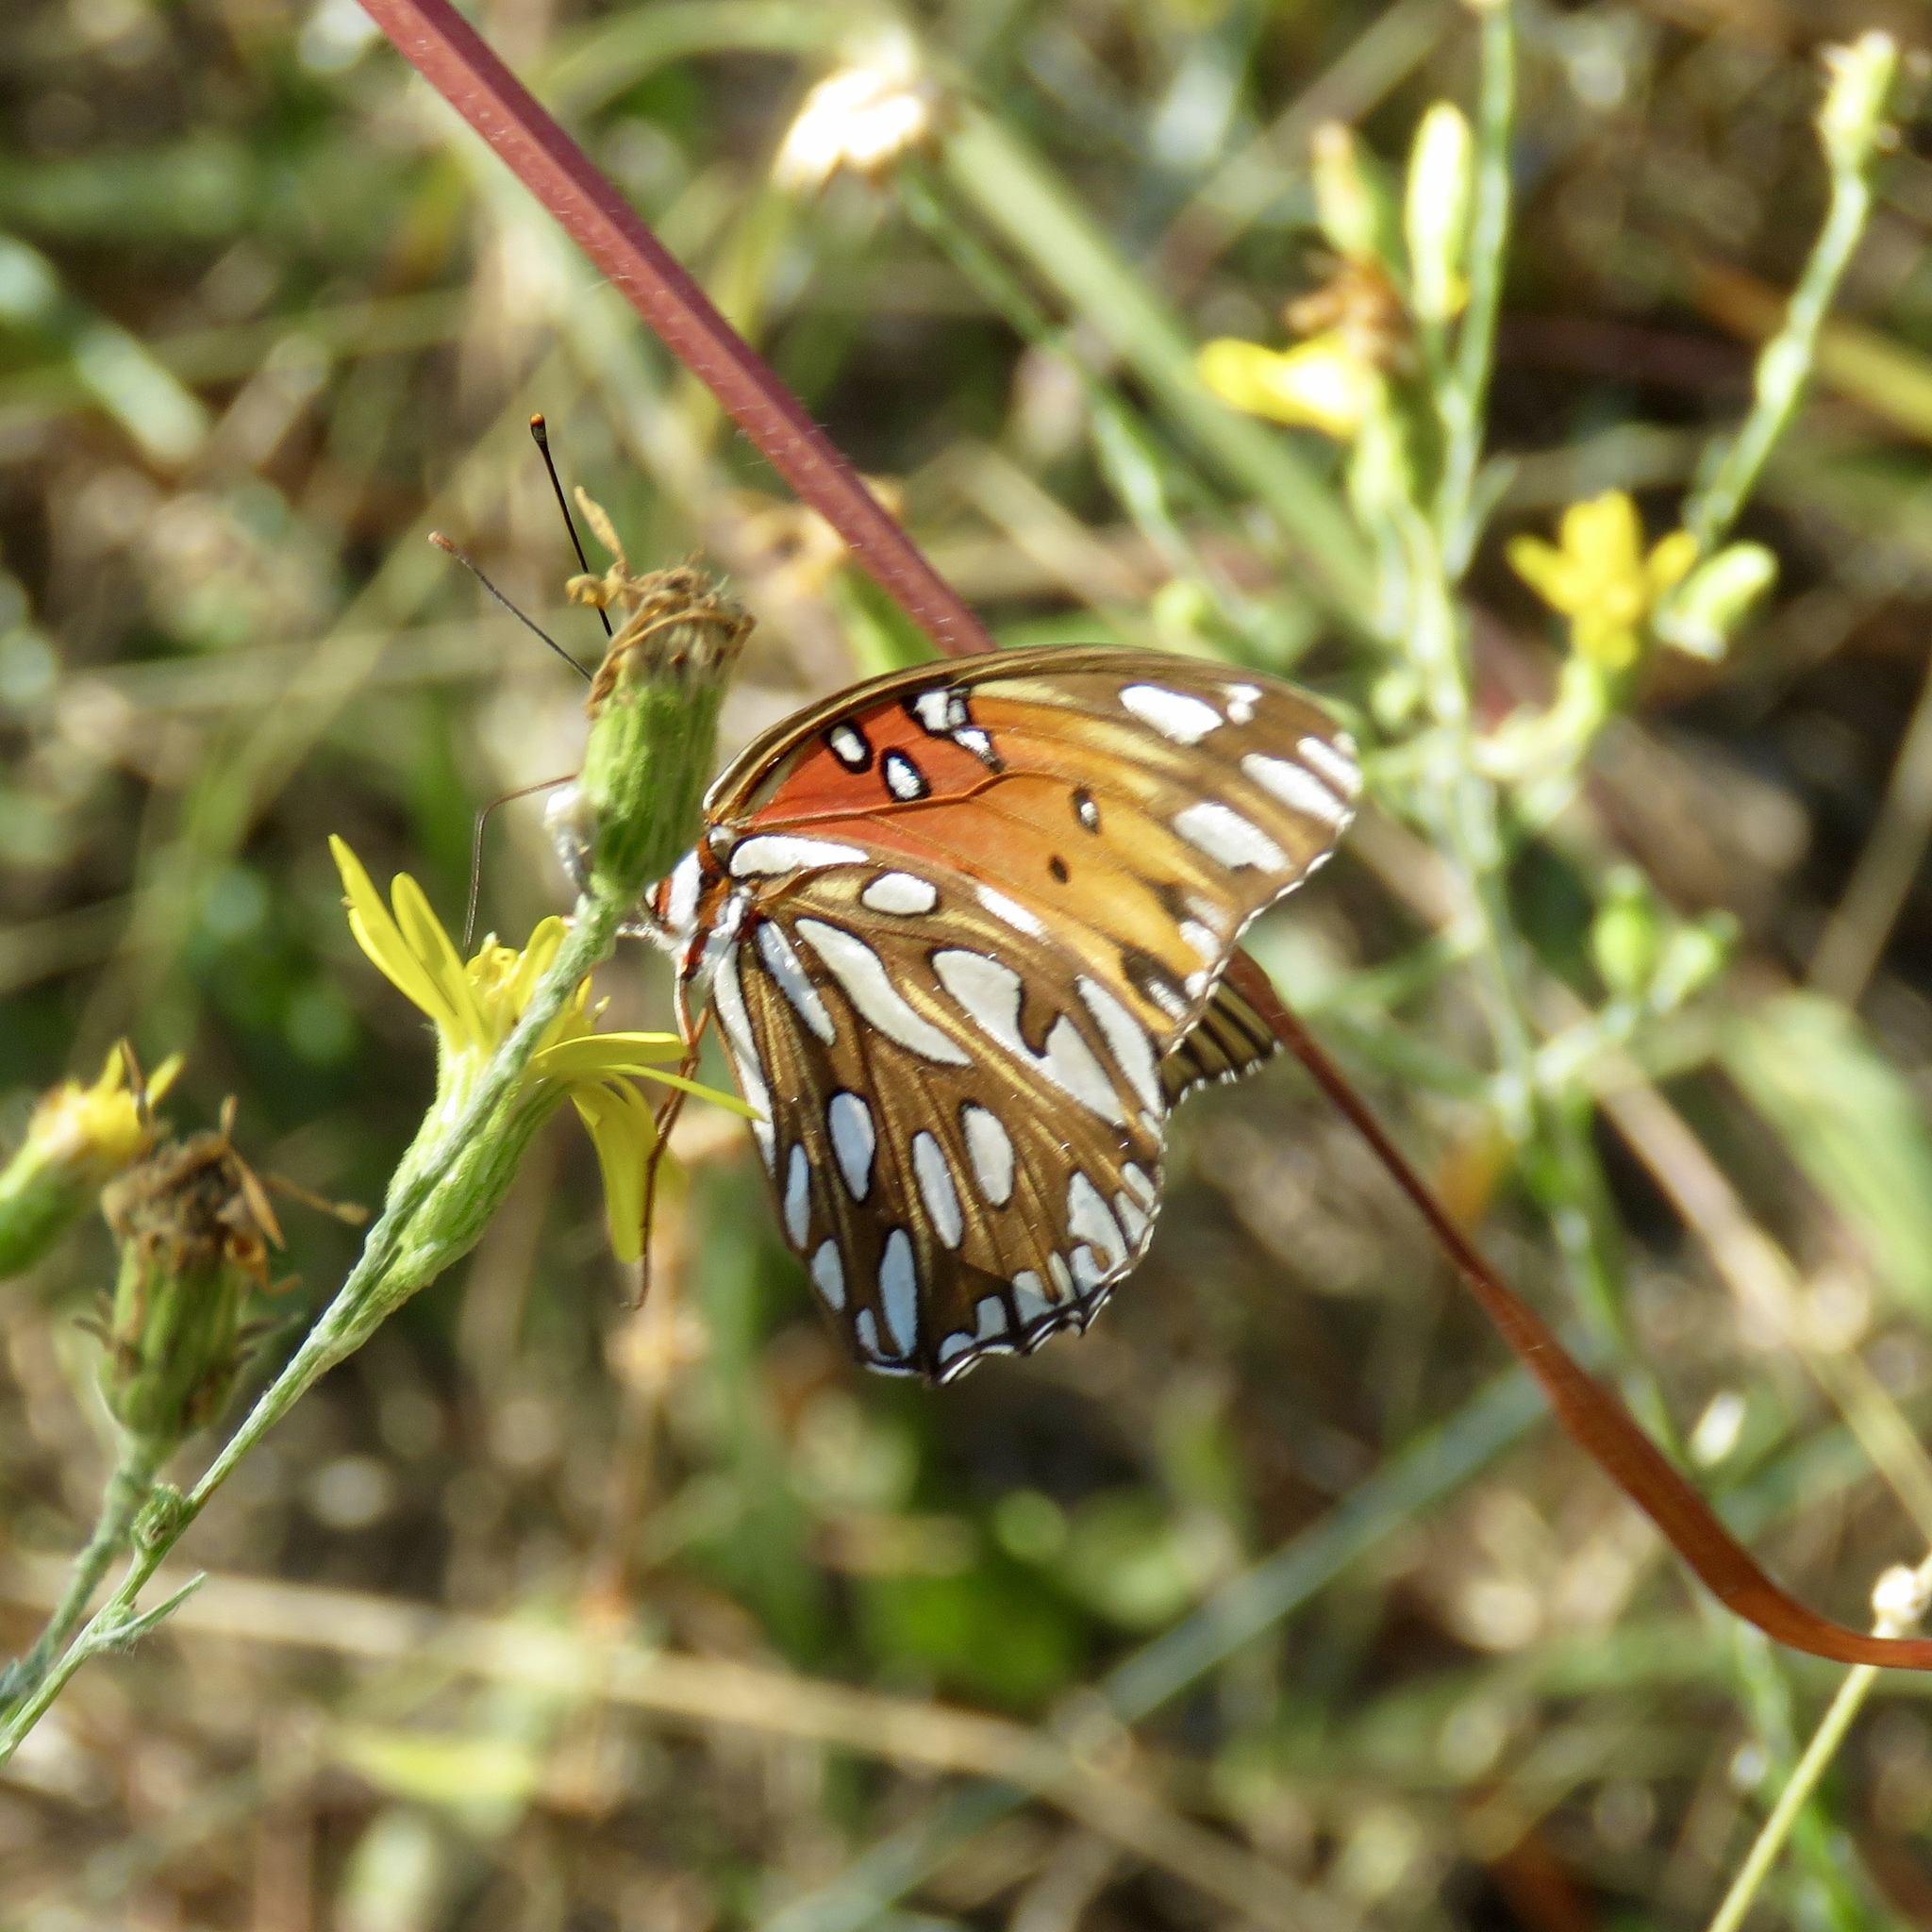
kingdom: Animalia
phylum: Arthropoda
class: Insecta
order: Lepidoptera
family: Nymphalidae
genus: Dione
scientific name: Dione vanillae
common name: Gulf fritillary
